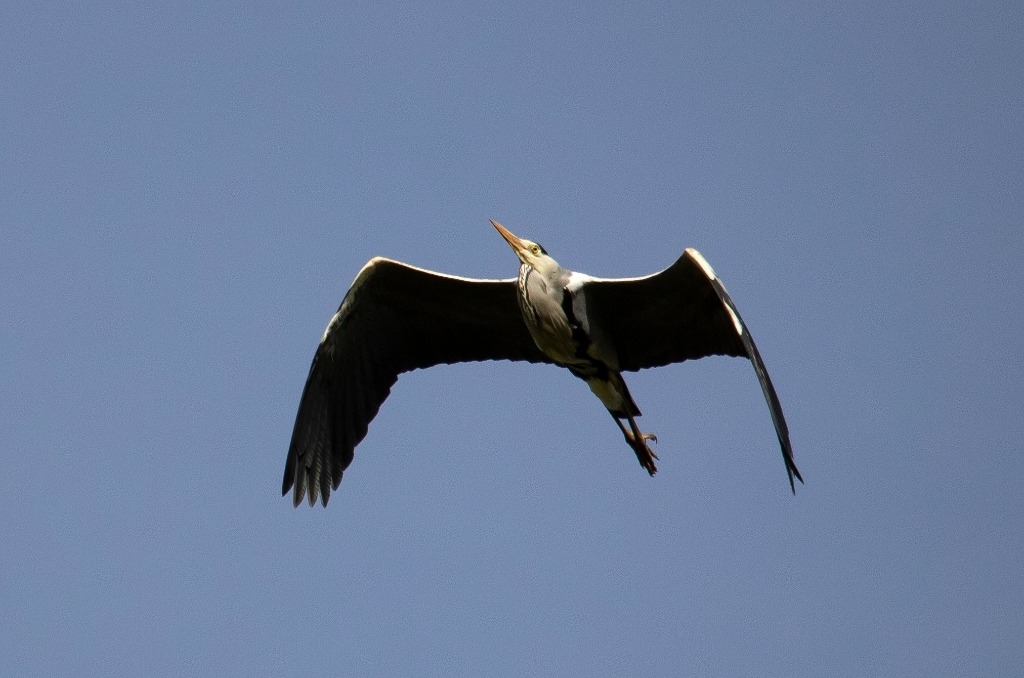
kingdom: Animalia
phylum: Chordata
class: Aves
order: Pelecaniformes
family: Ardeidae
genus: Ardea
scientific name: Ardea cinerea
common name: Grey heron
